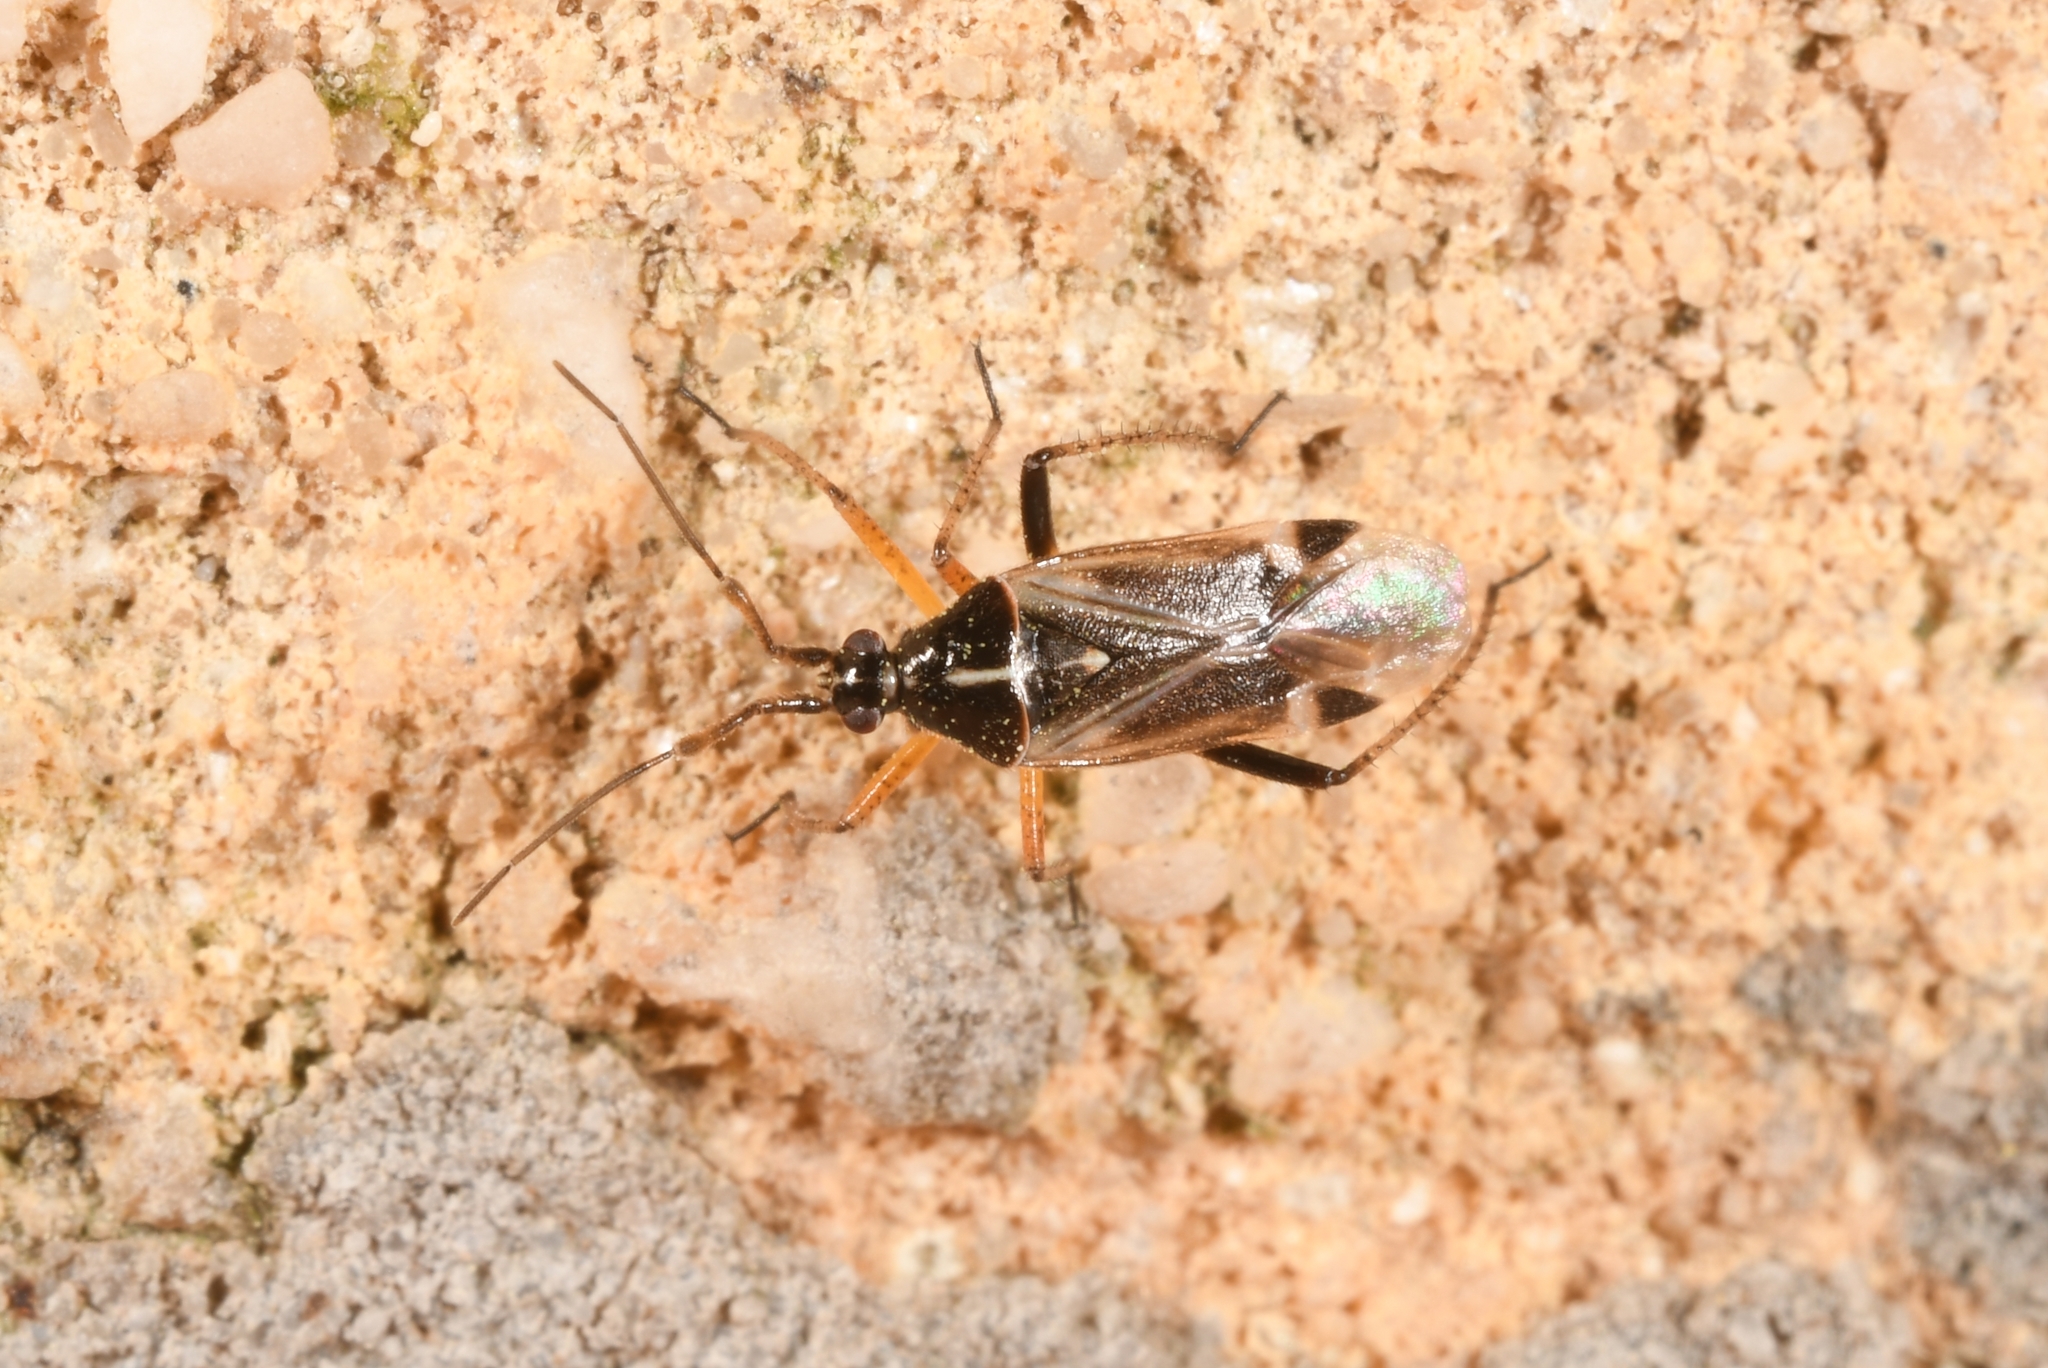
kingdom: Animalia
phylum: Arthropoda
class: Insecta
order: Hemiptera
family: Miridae
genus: Harpocera
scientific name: Harpocera thoracica
